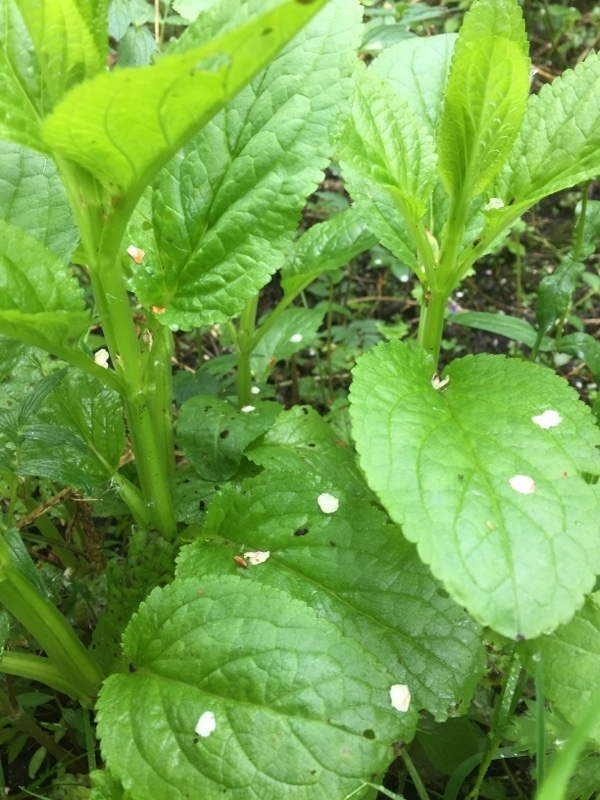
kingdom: Plantae
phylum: Tracheophyta
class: Magnoliopsida
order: Lamiales
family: Scrophulariaceae
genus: Scrophularia
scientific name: Scrophularia umbrosa
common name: Green figwort
